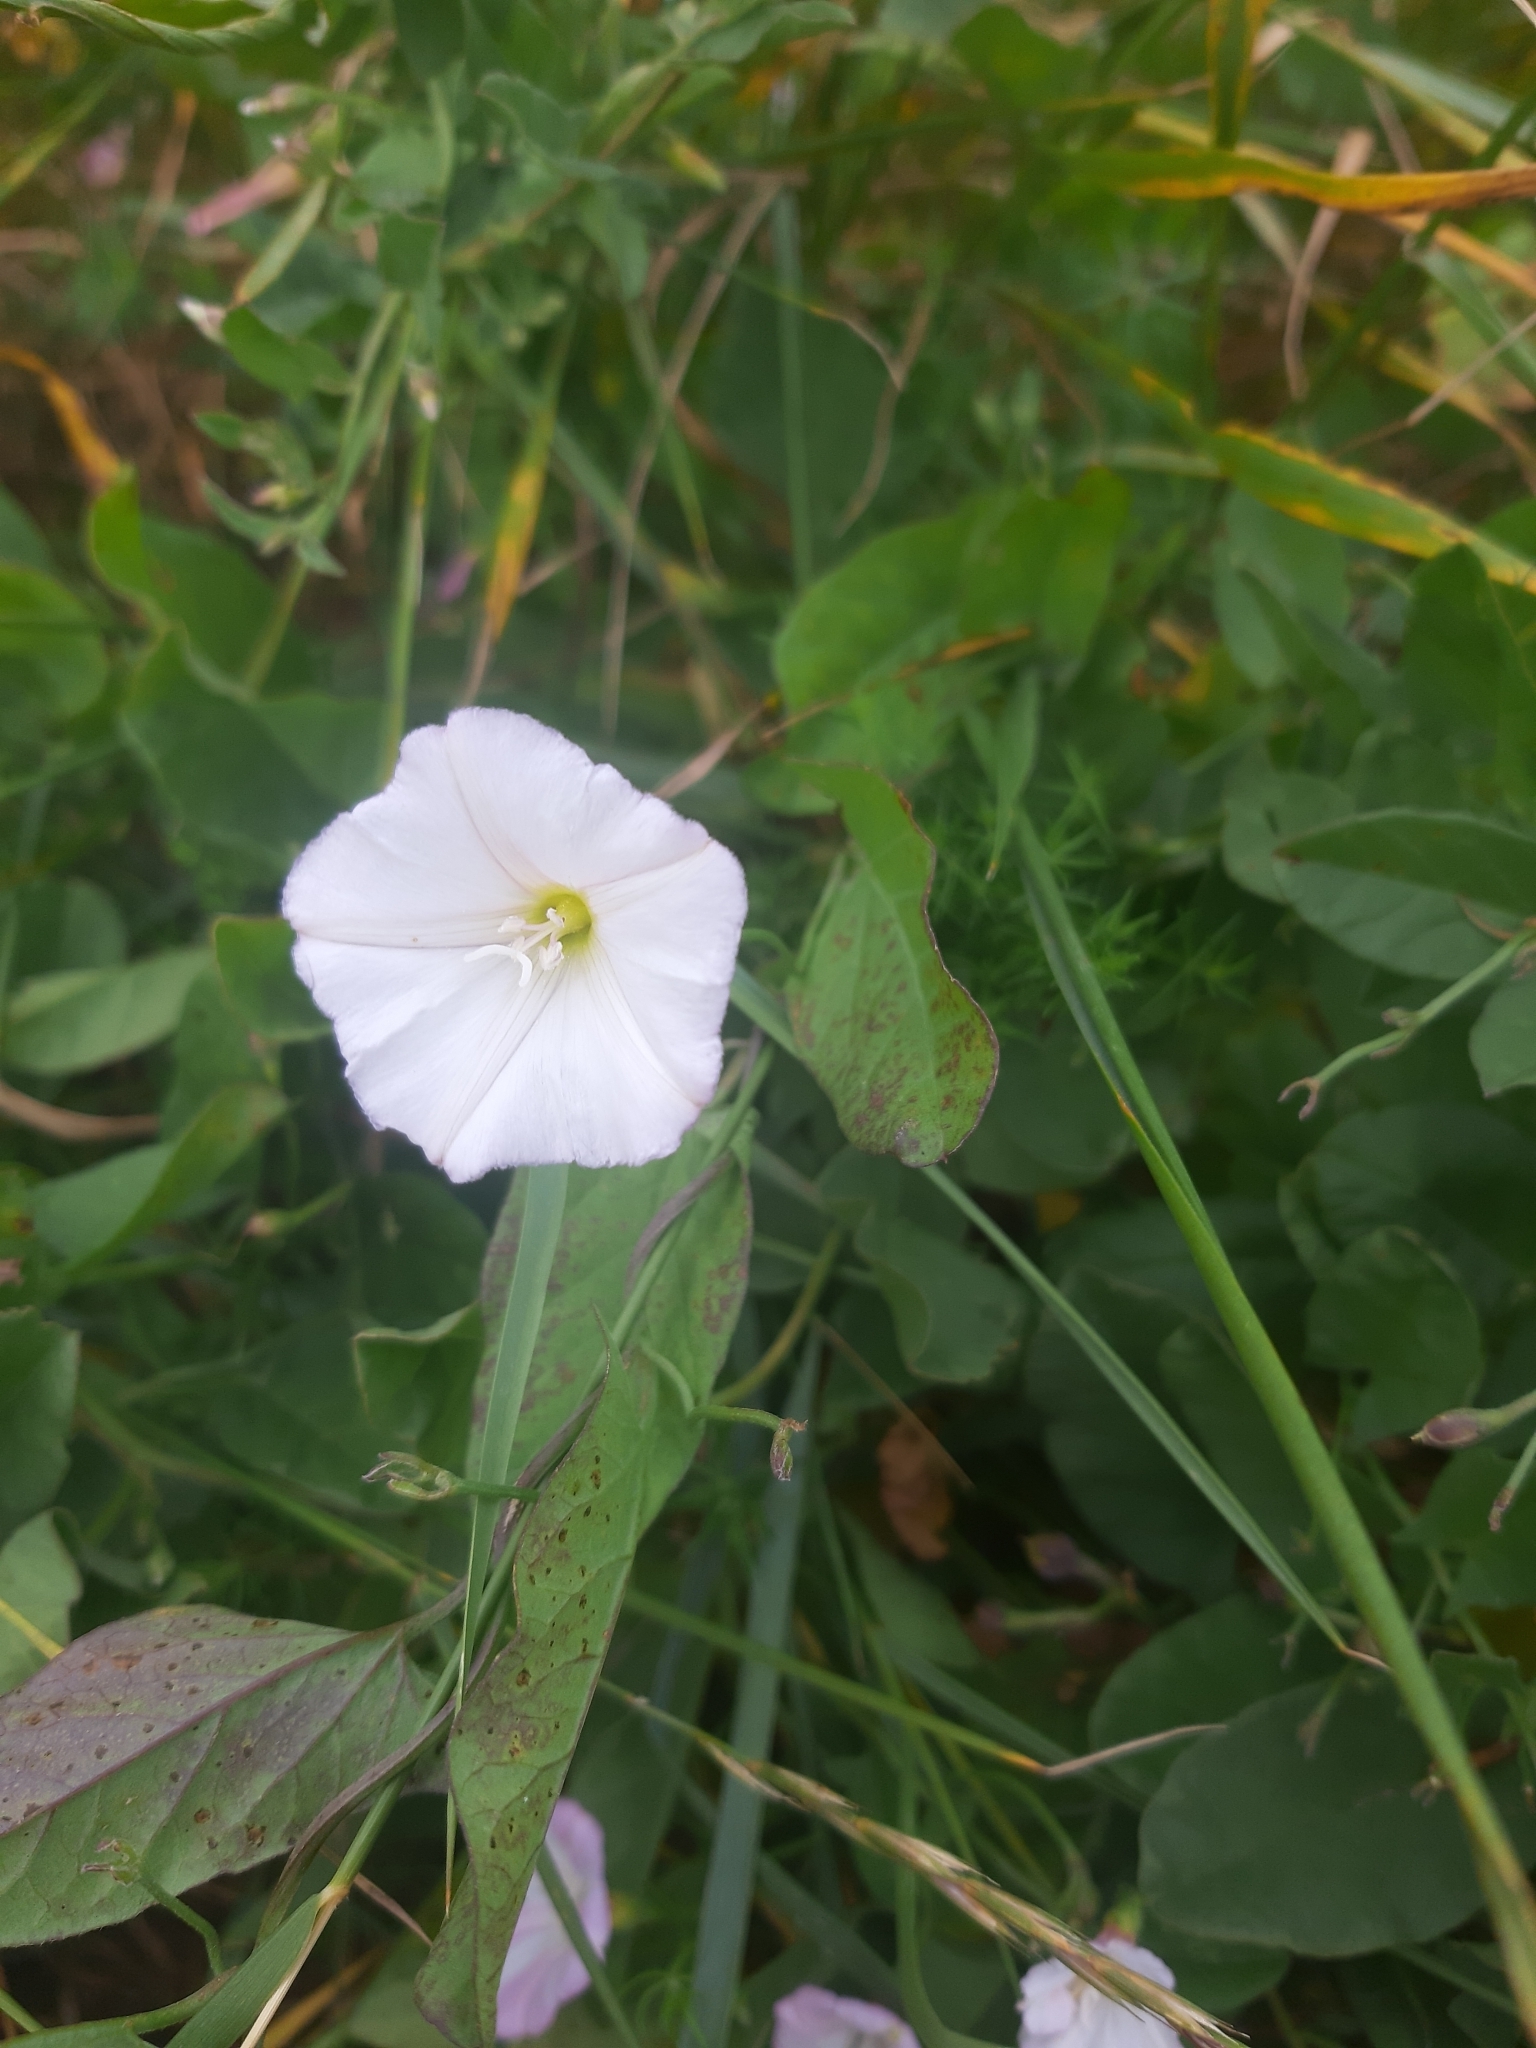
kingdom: Plantae
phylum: Tracheophyta
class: Magnoliopsida
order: Solanales
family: Convolvulaceae
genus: Convolvulus
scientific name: Convolvulus arvensis
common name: Field bindweed
